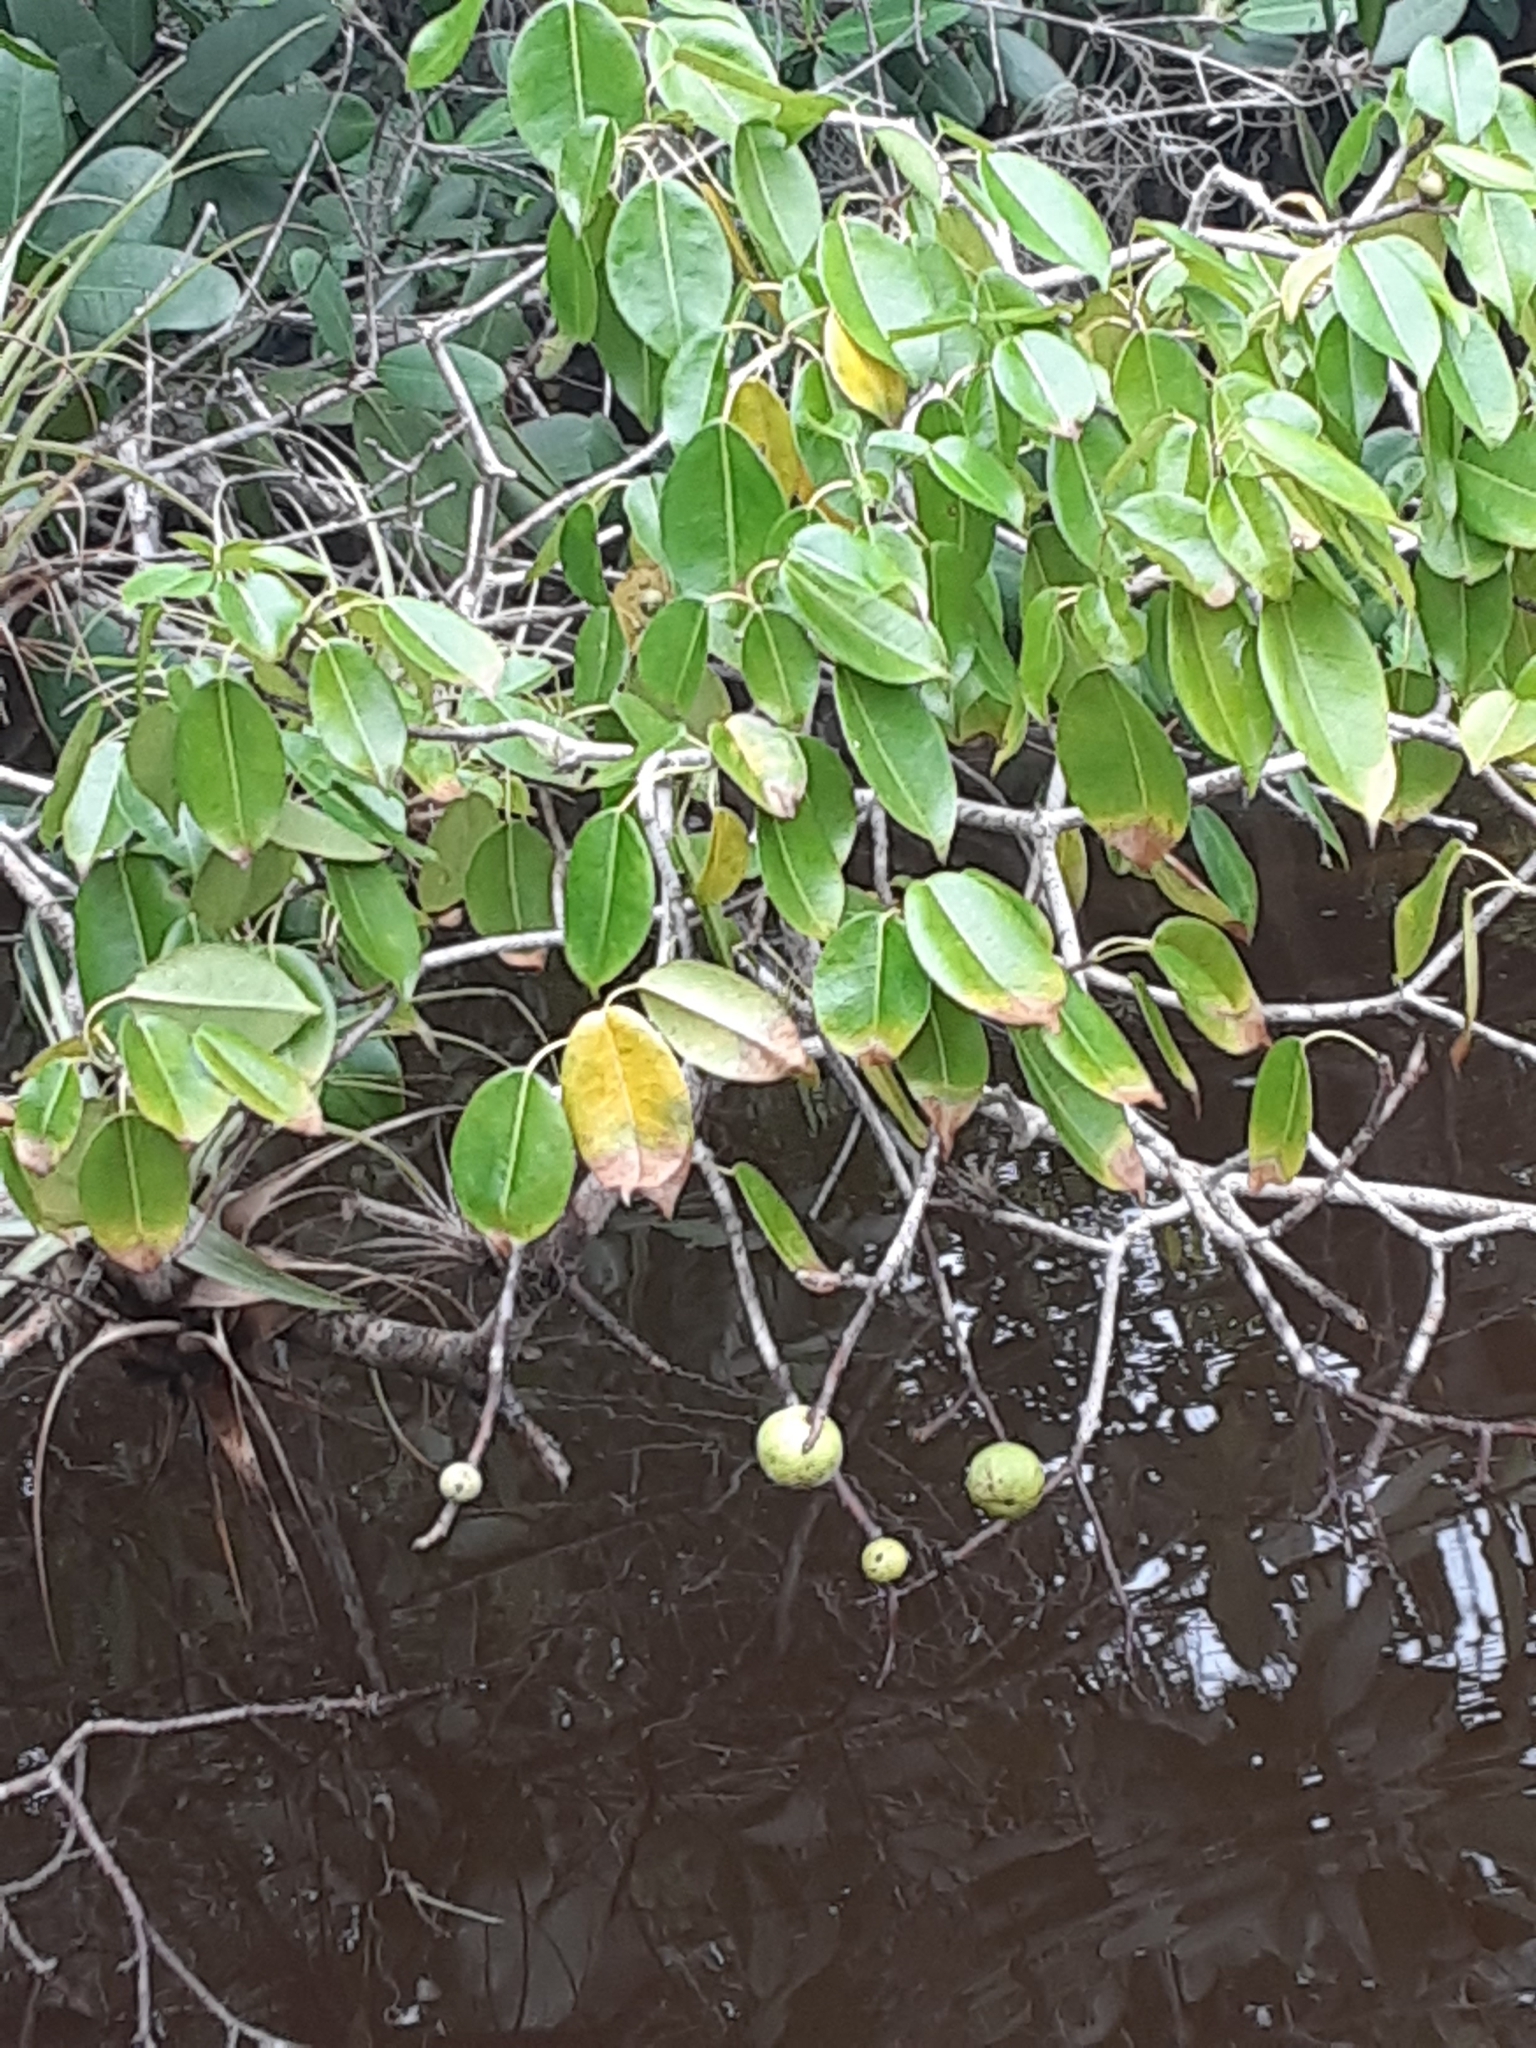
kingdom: Plantae
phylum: Tracheophyta
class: Magnoliopsida
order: Malpighiales
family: Euphorbiaceae
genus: Hippomane
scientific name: Hippomane mancinella
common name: Manchineel
